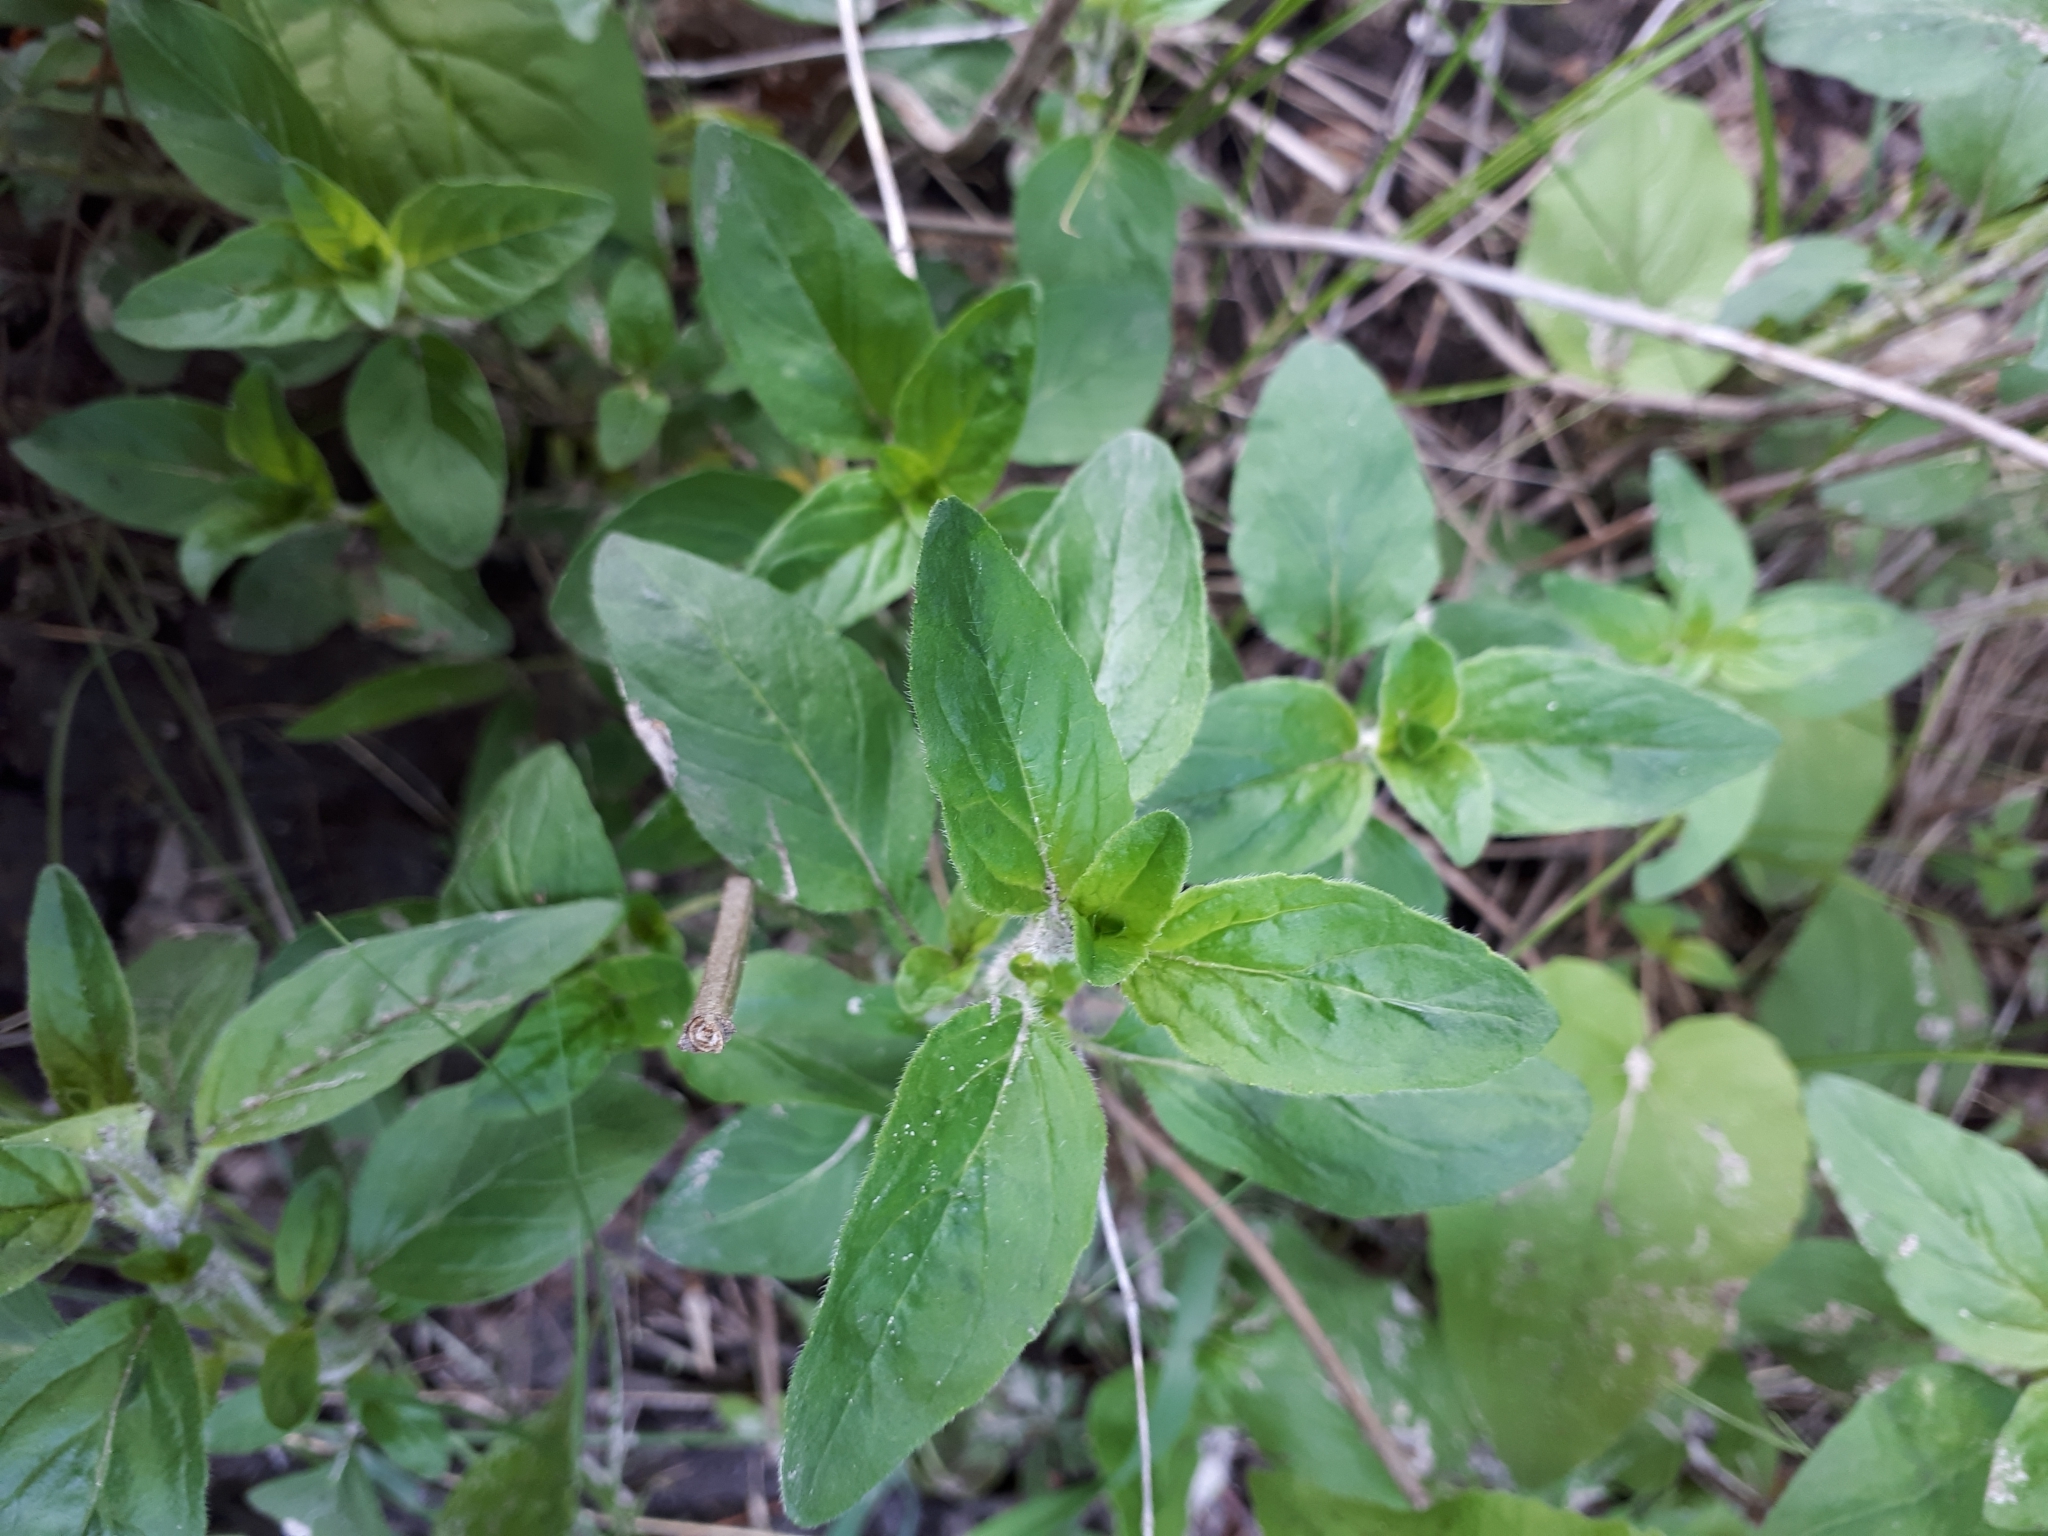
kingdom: Plantae
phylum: Tracheophyta
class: Magnoliopsida
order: Lamiales
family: Lamiaceae
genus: Origanum
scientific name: Origanum vulgare
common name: Wild marjoram
